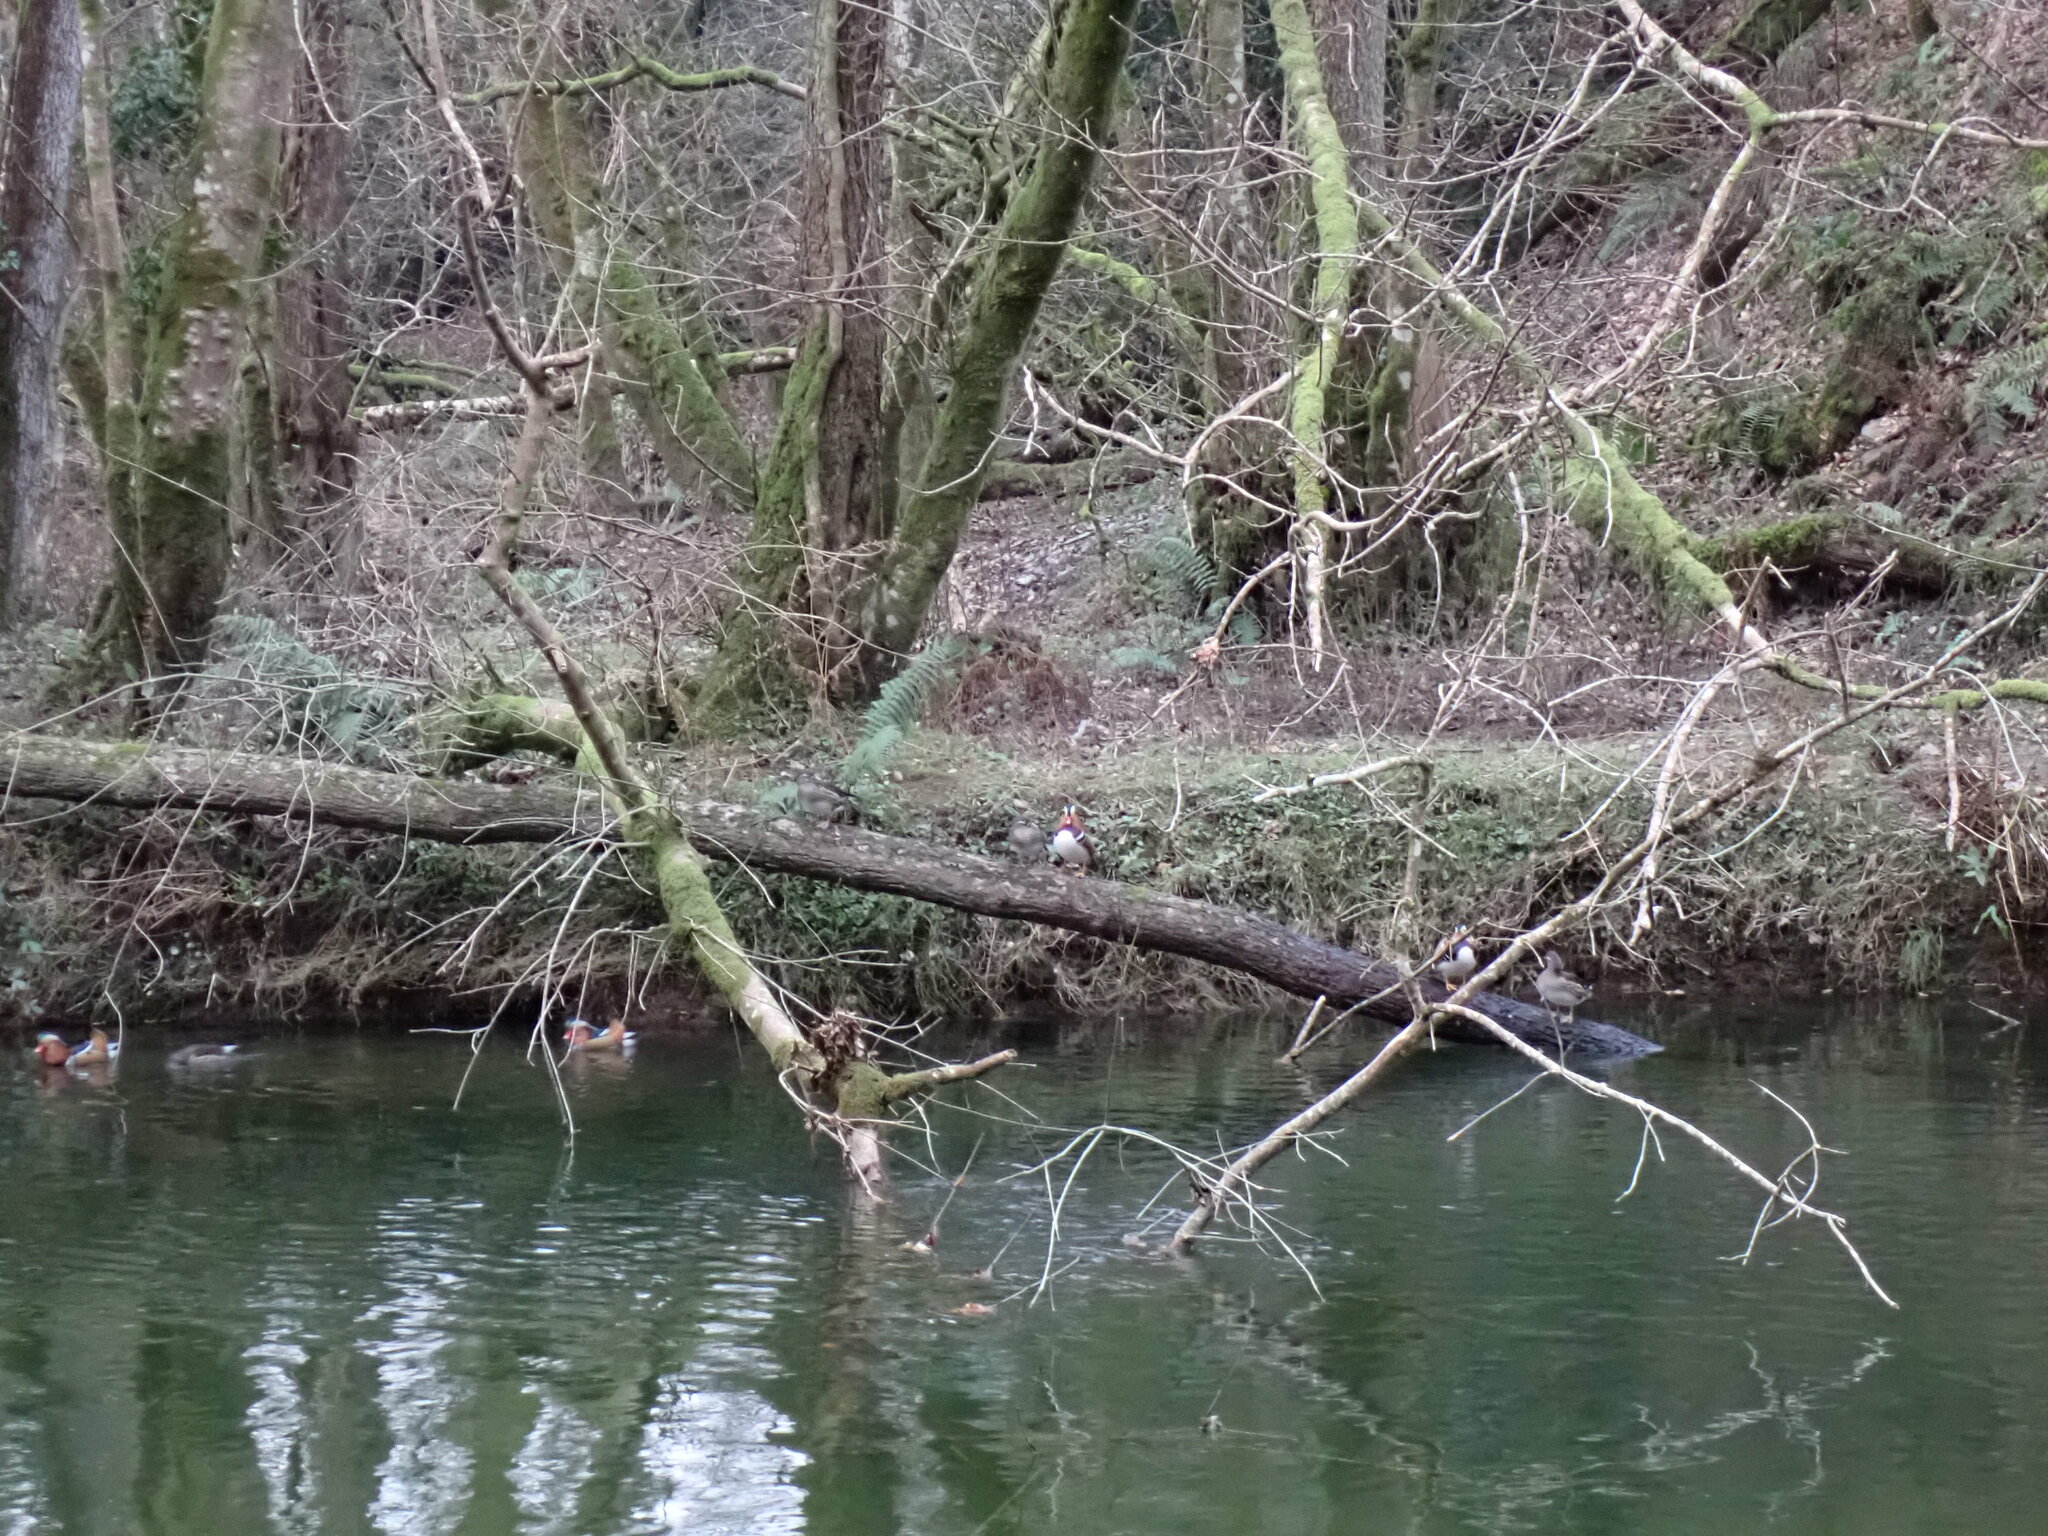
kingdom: Animalia
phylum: Chordata
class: Aves
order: Anseriformes
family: Anatidae
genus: Aix
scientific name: Aix galericulata
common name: Mandarin duck
